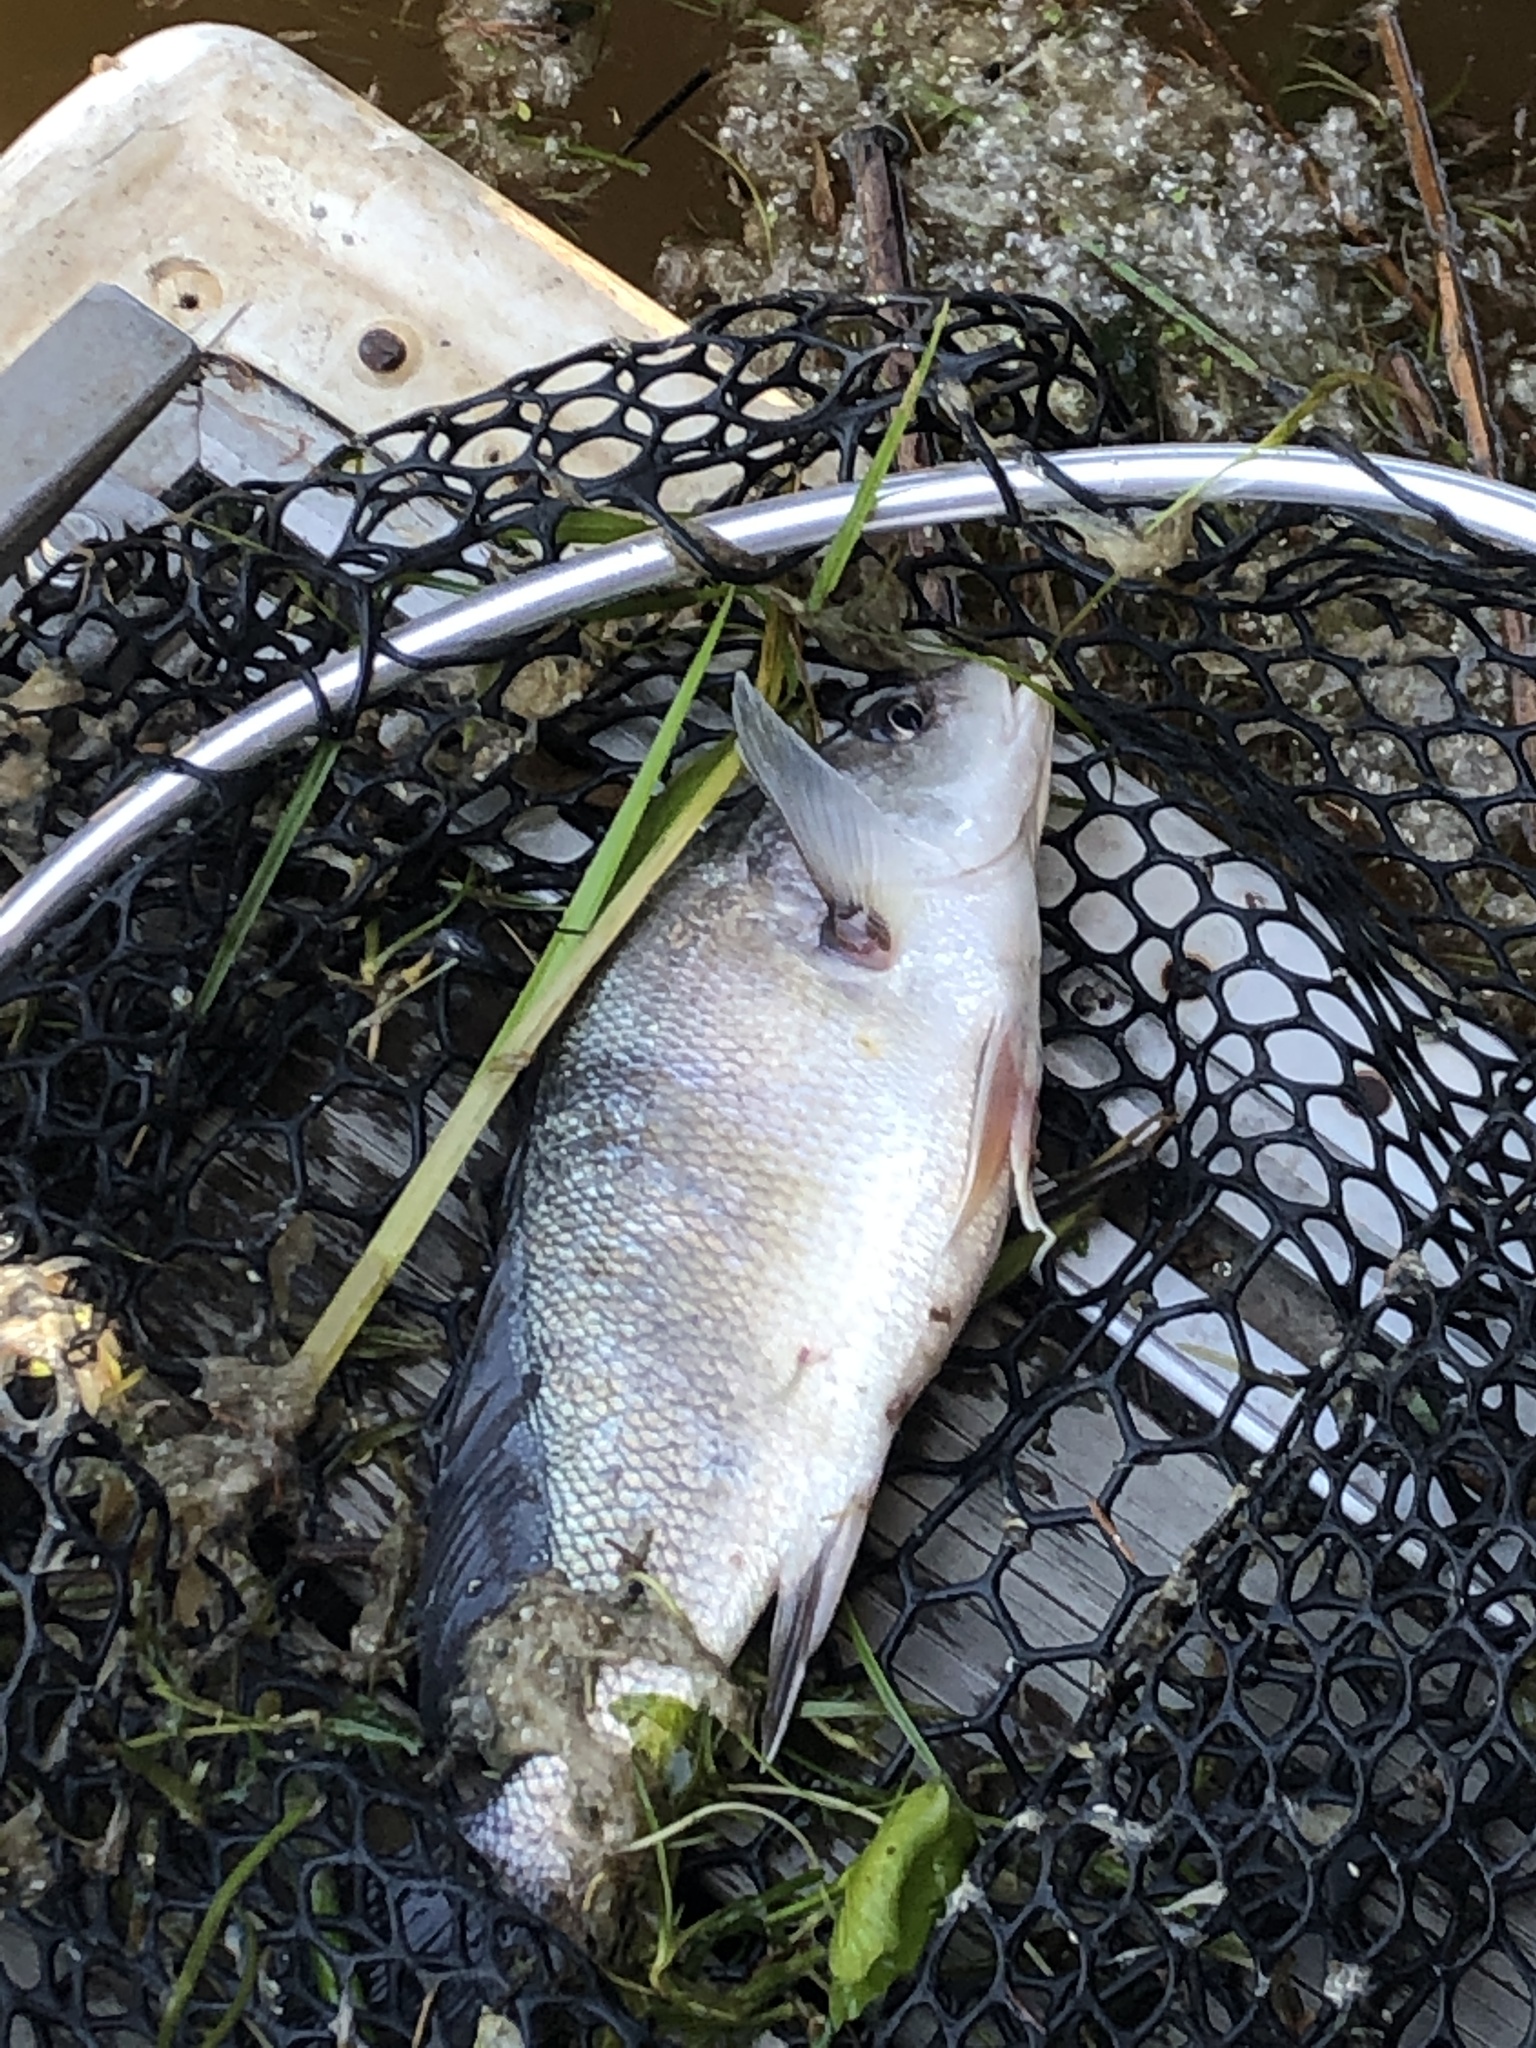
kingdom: Animalia
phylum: Chordata
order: Perciformes
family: Sciaenidae
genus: Aplodinotus
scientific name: Aplodinotus grunniens
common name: Freshwater drum
